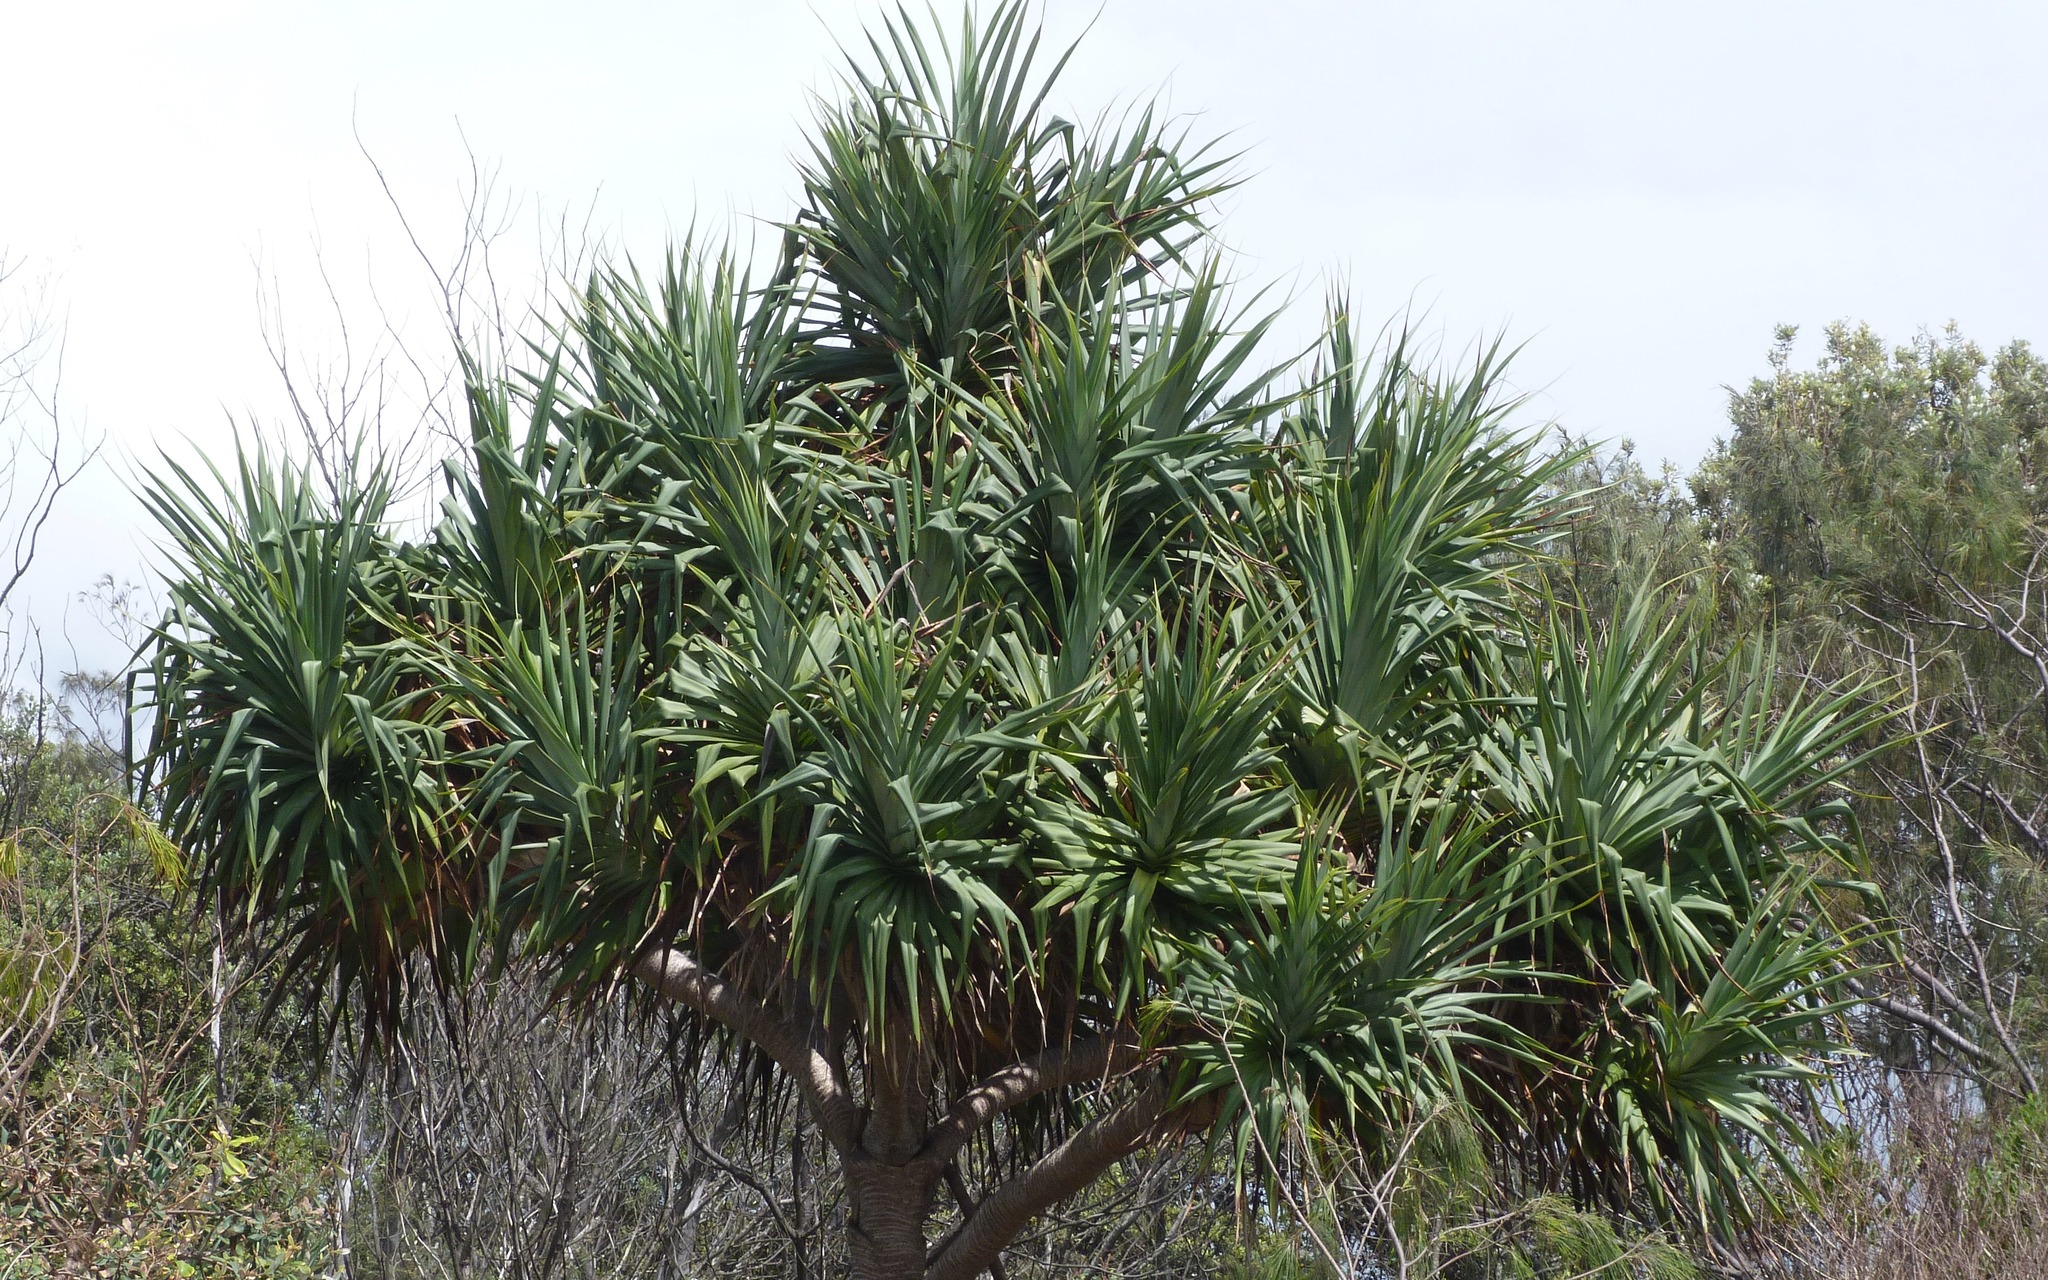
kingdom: Plantae
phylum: Tracheophyta
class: Liliopsida
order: Pandanales
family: Pandanaceae
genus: Pandanus
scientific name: Pandanus tectorius
